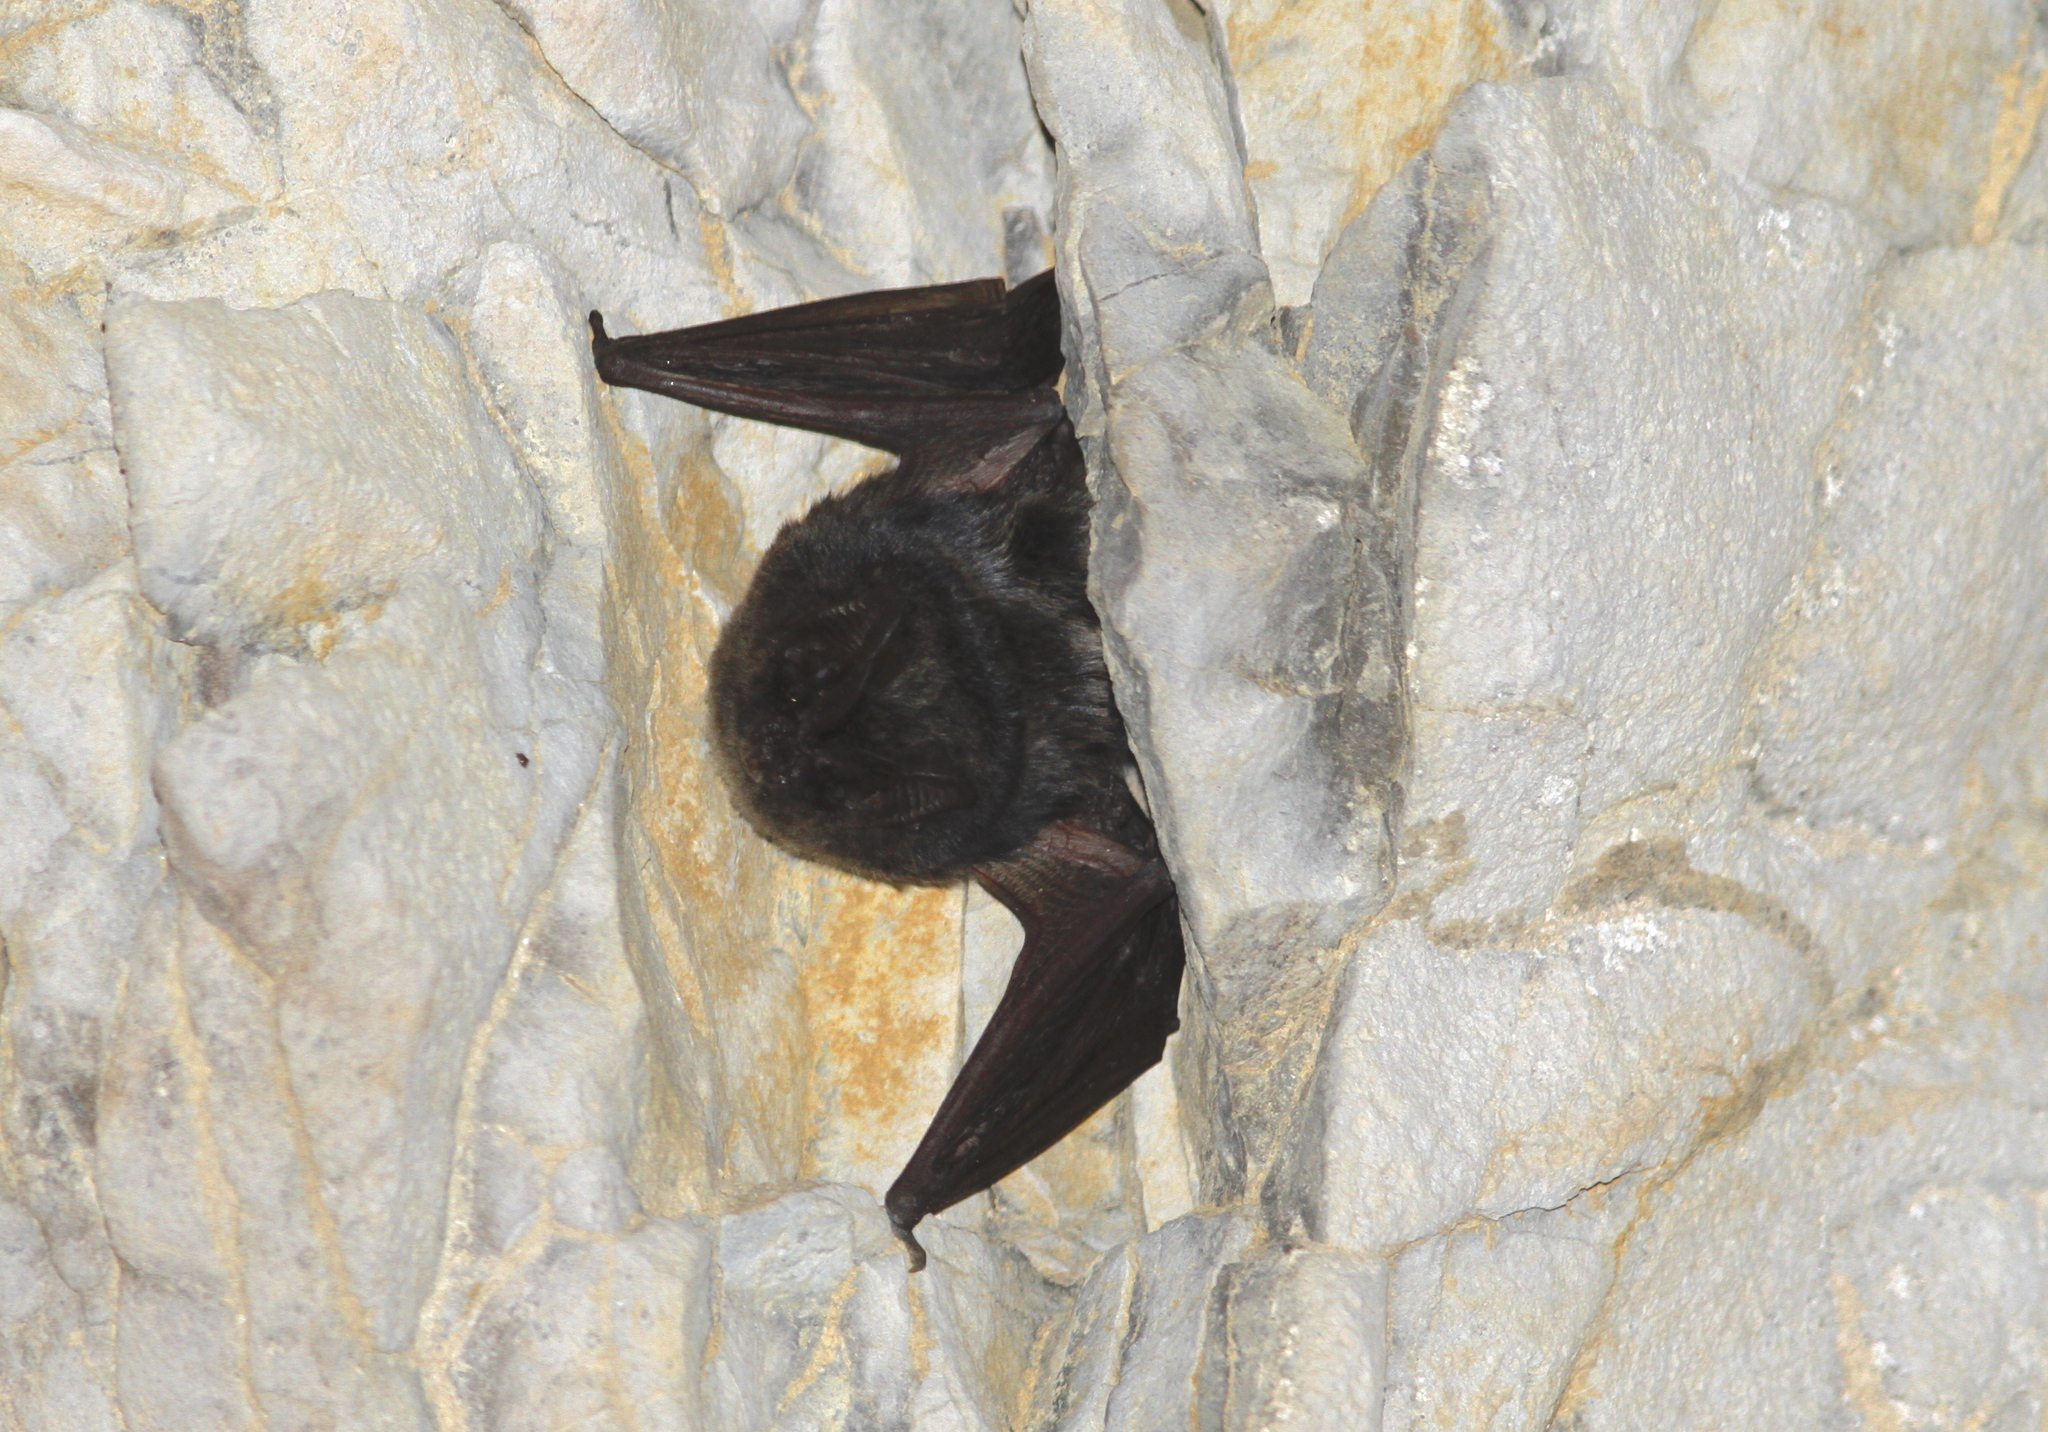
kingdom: Animalia
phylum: Chordata
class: Mammalia
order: Chiroptera
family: Vespertilionidae
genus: Barbastella
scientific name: Barbastella barbastellus
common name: Western barbastelle
